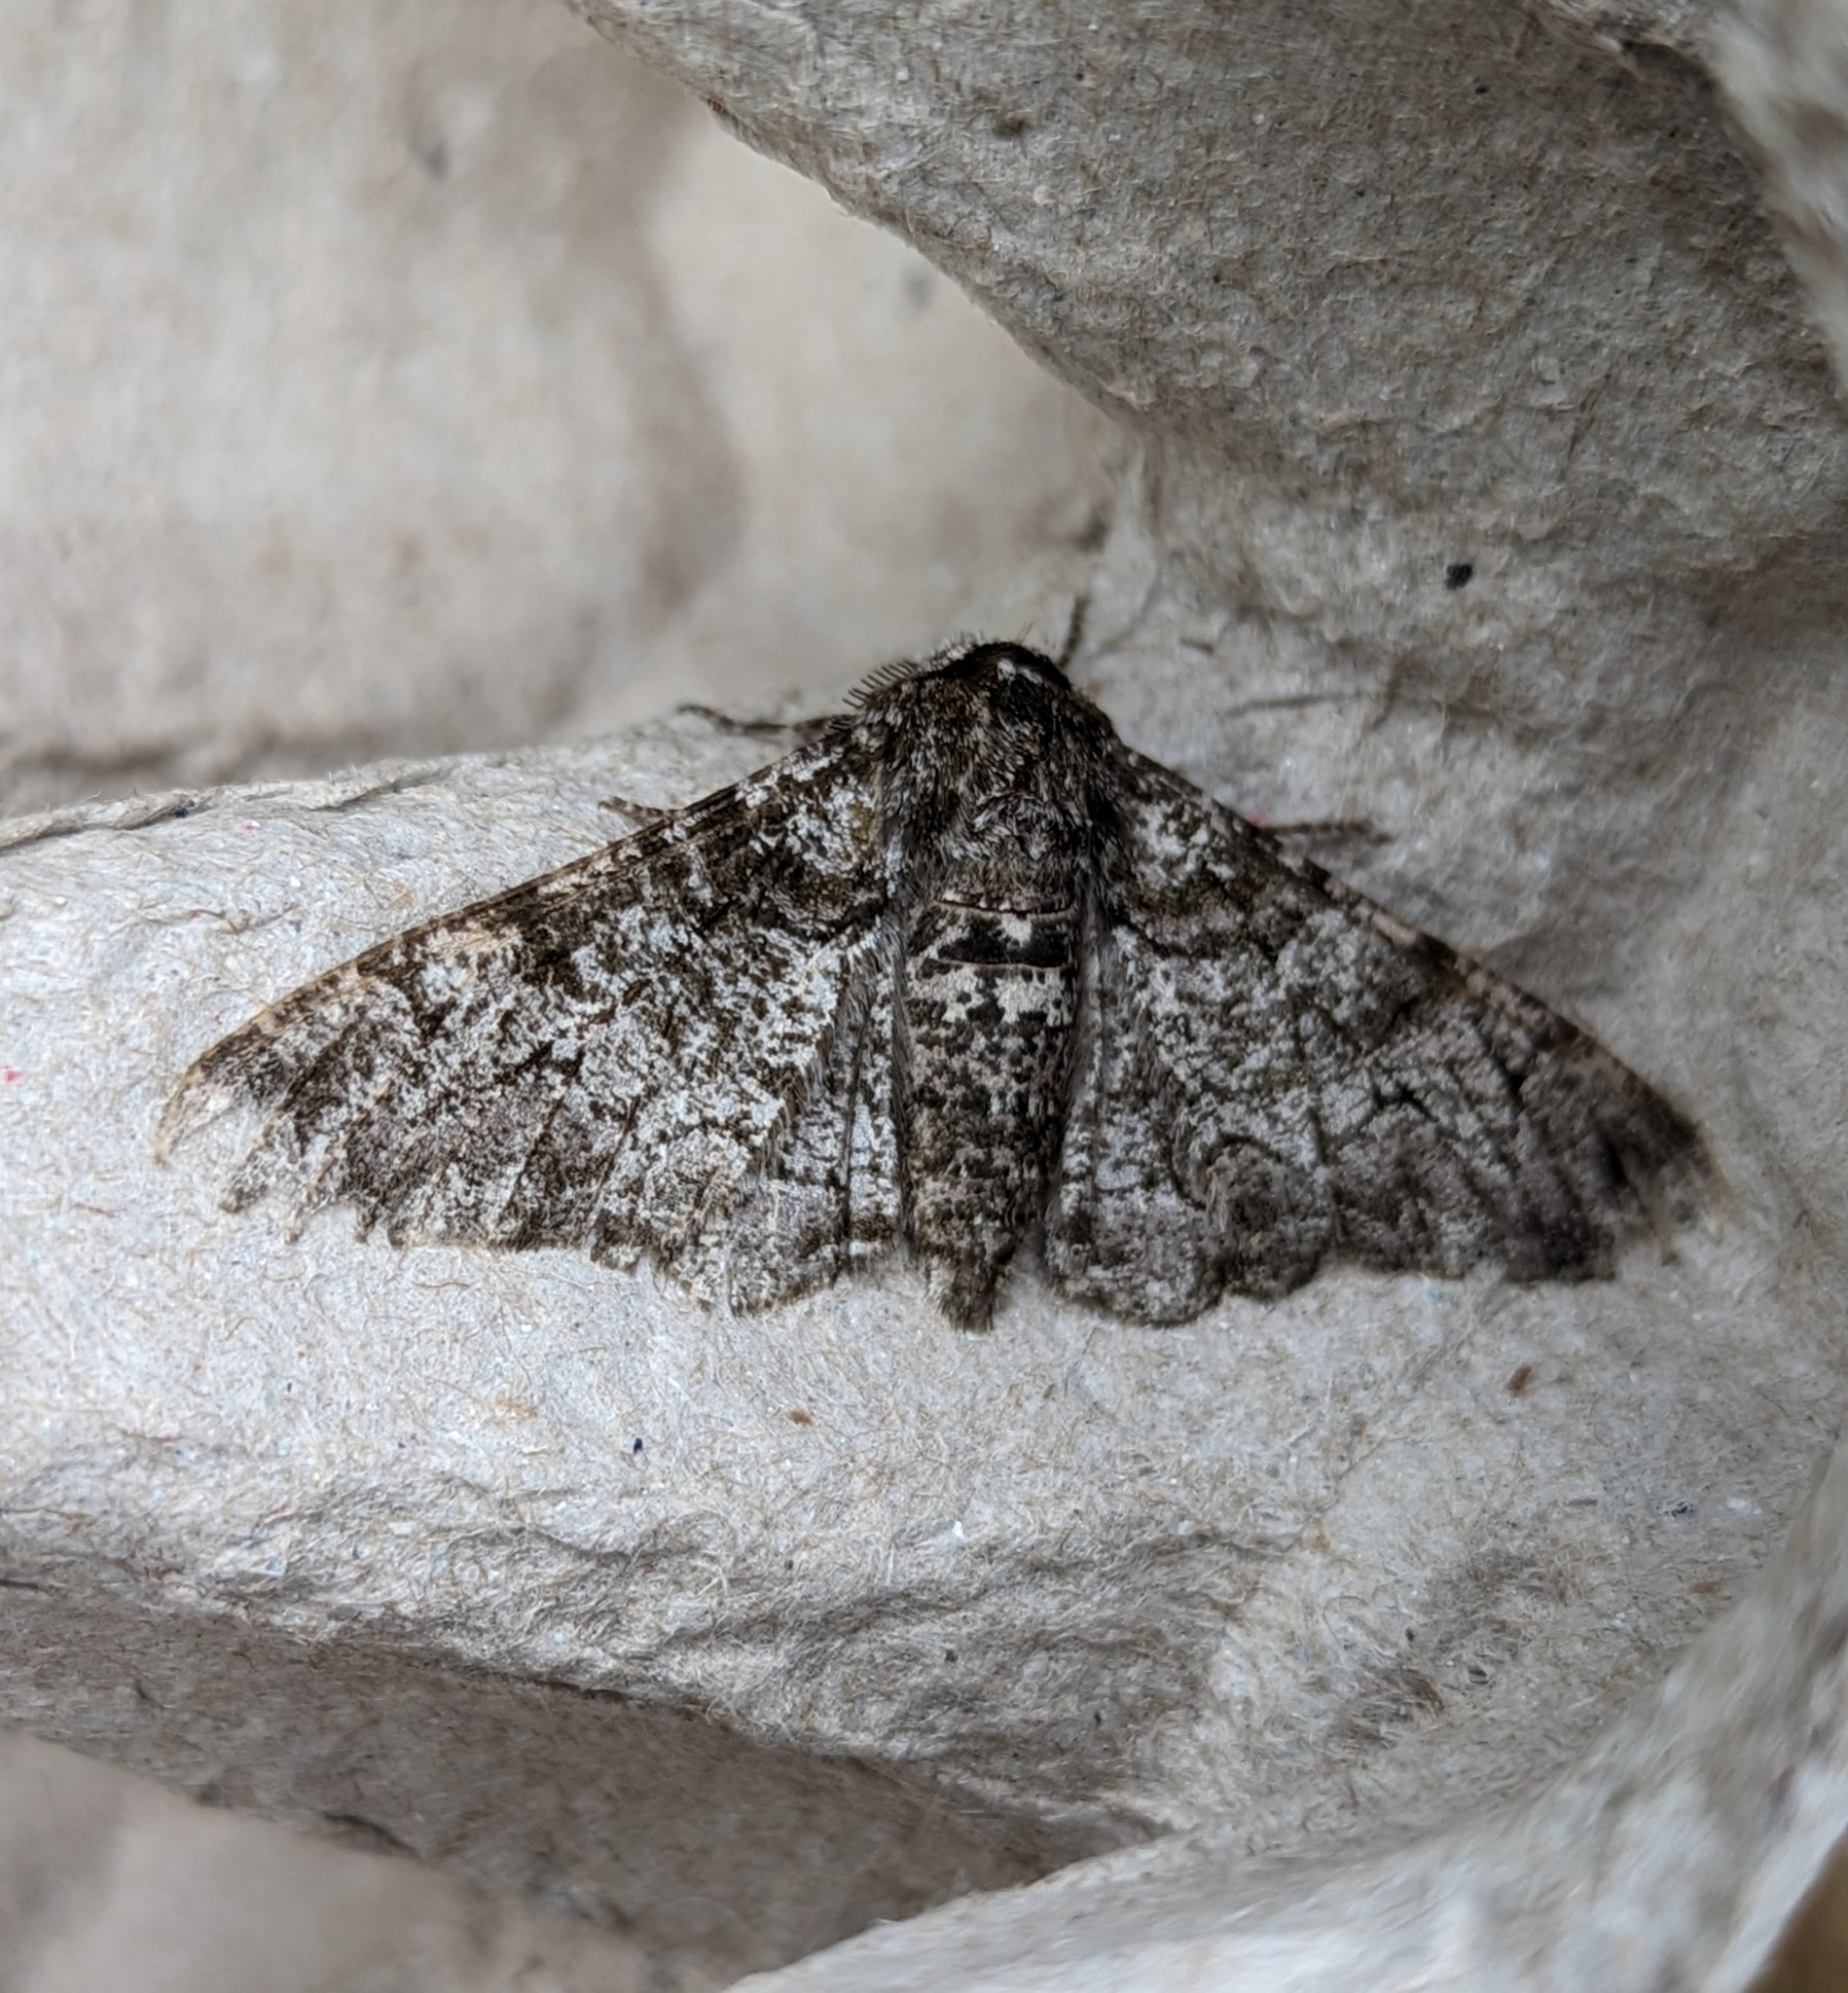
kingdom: Animalia
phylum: Arthropoda
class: Insecta
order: Lepidoptera
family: Geometridae
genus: Biston
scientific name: Biston betularia
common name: Peppered moth
